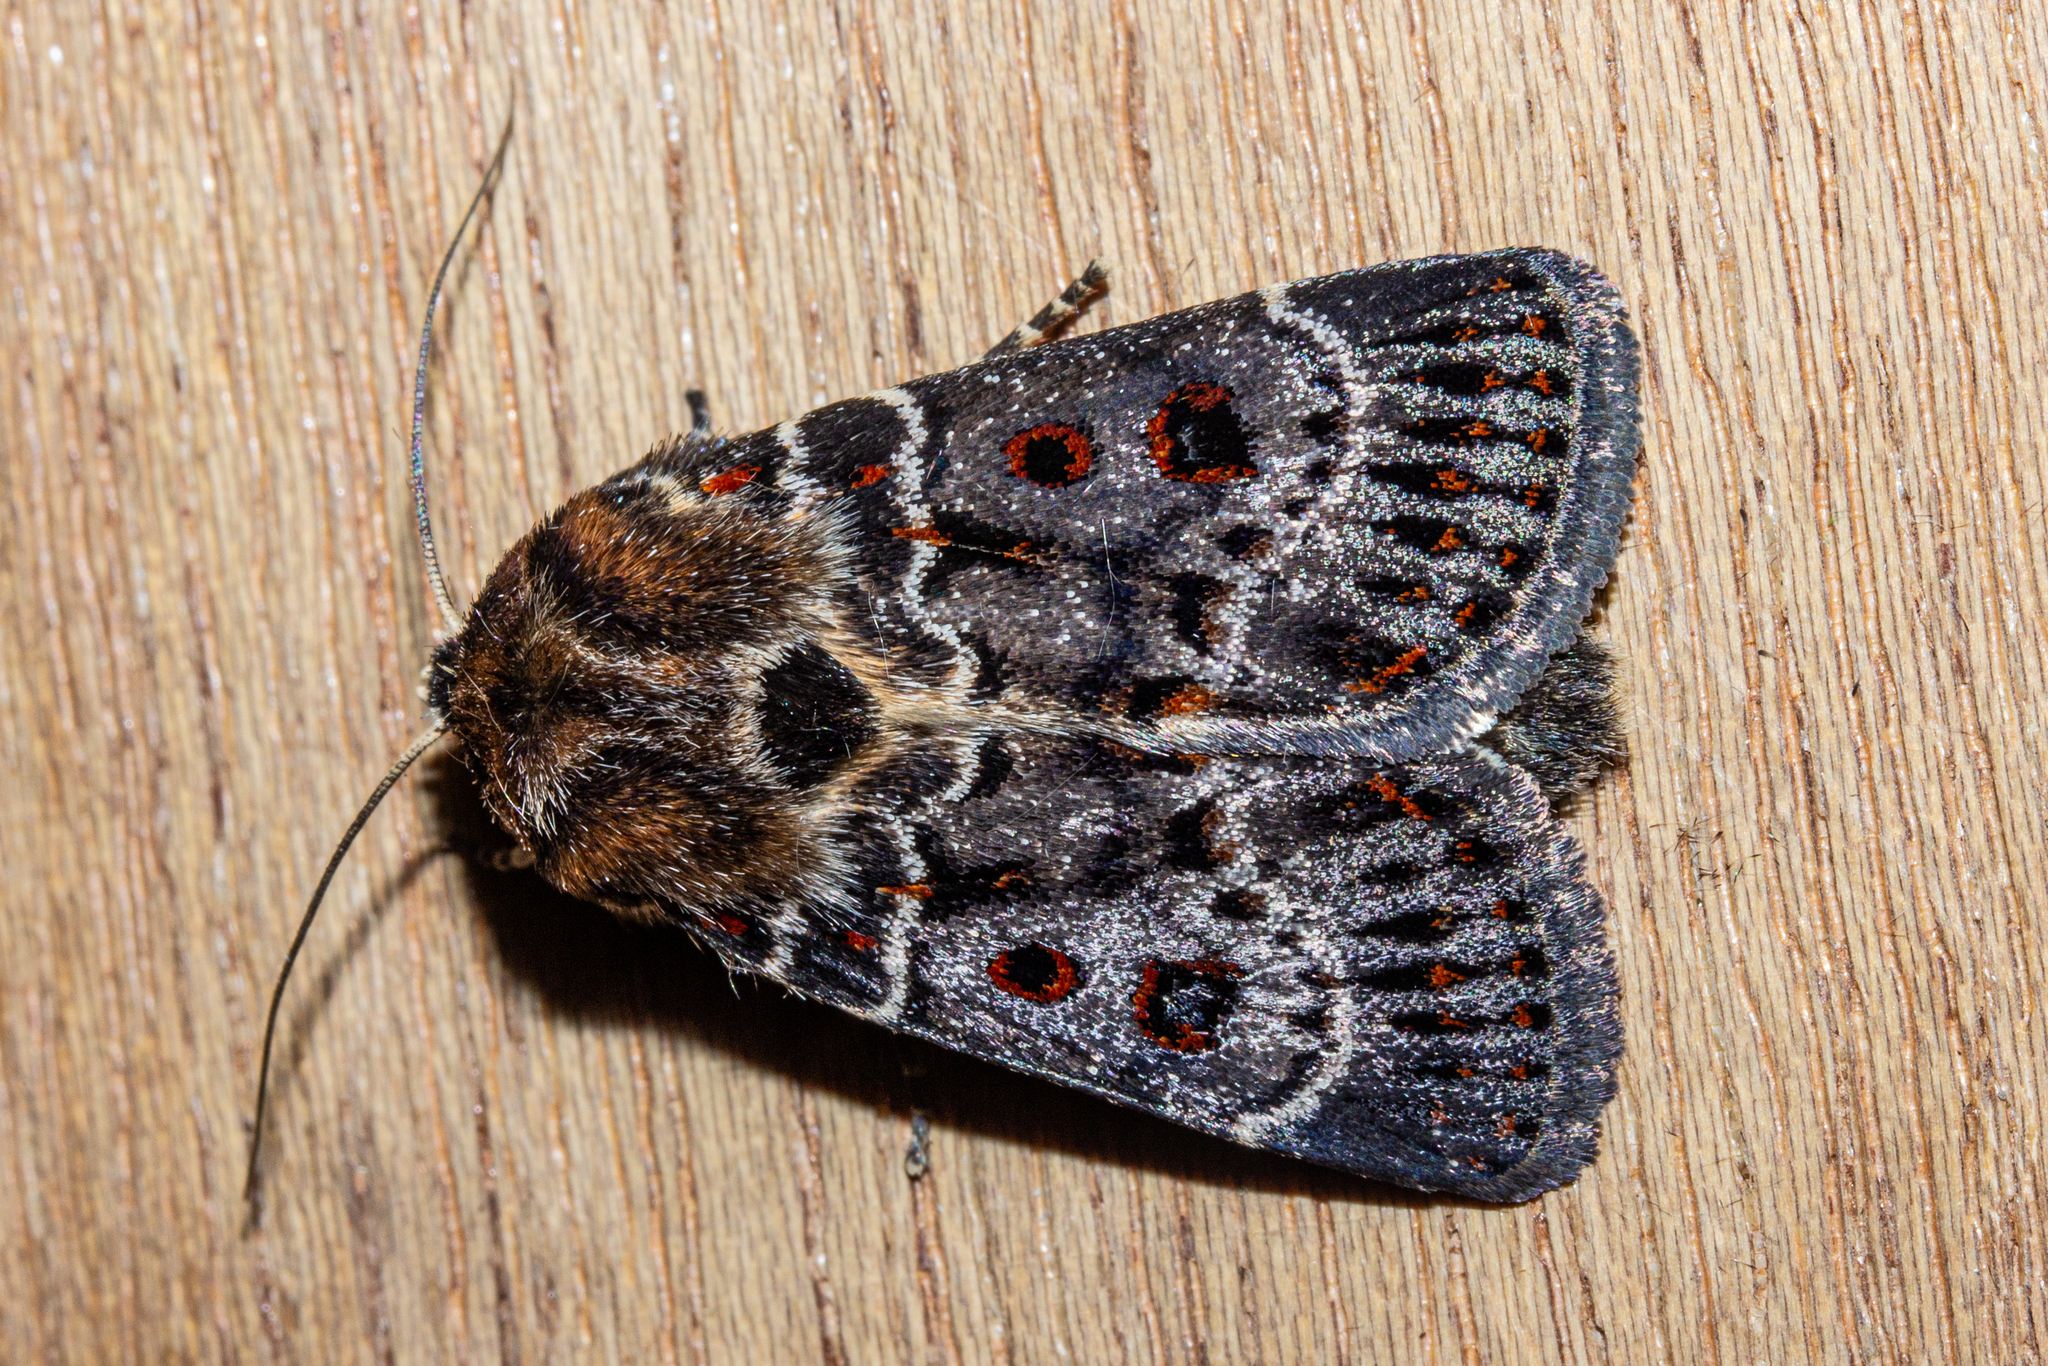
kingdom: Animalia
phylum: Arthropoda
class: Insecta
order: Lepidoptera
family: Noctuidae
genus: Proteuxoa
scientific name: Proteuxoa sanguinipuncta
